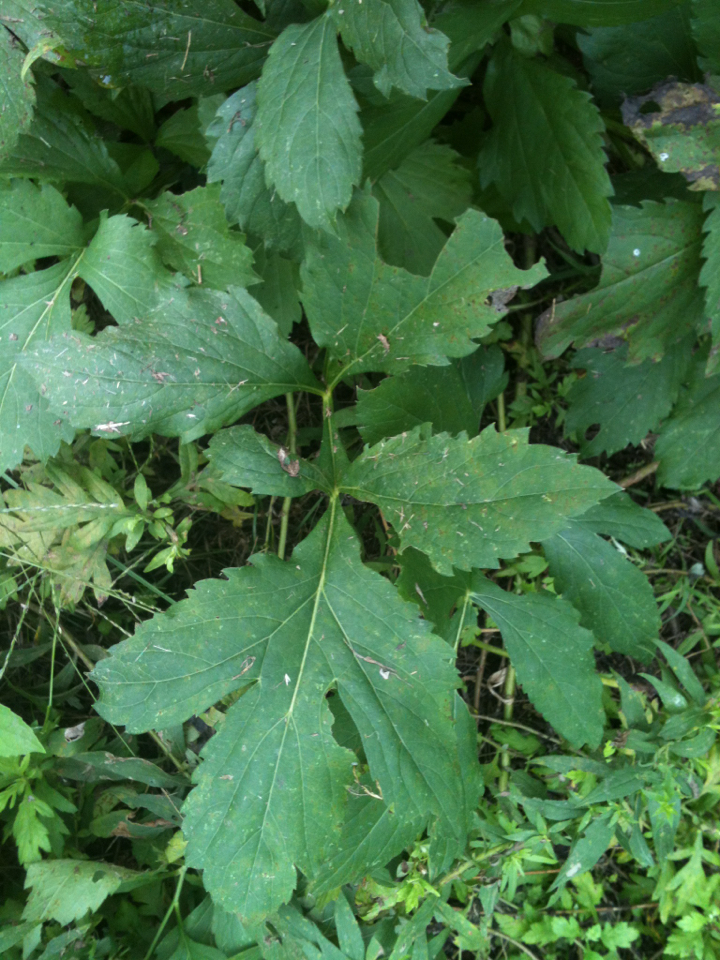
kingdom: Plantae
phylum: Tracheophyta
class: Magnoliopsida
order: Asterales
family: Asteraceae
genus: Rudbeckia
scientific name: Rudbeckia laciniata
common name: Coneflower
